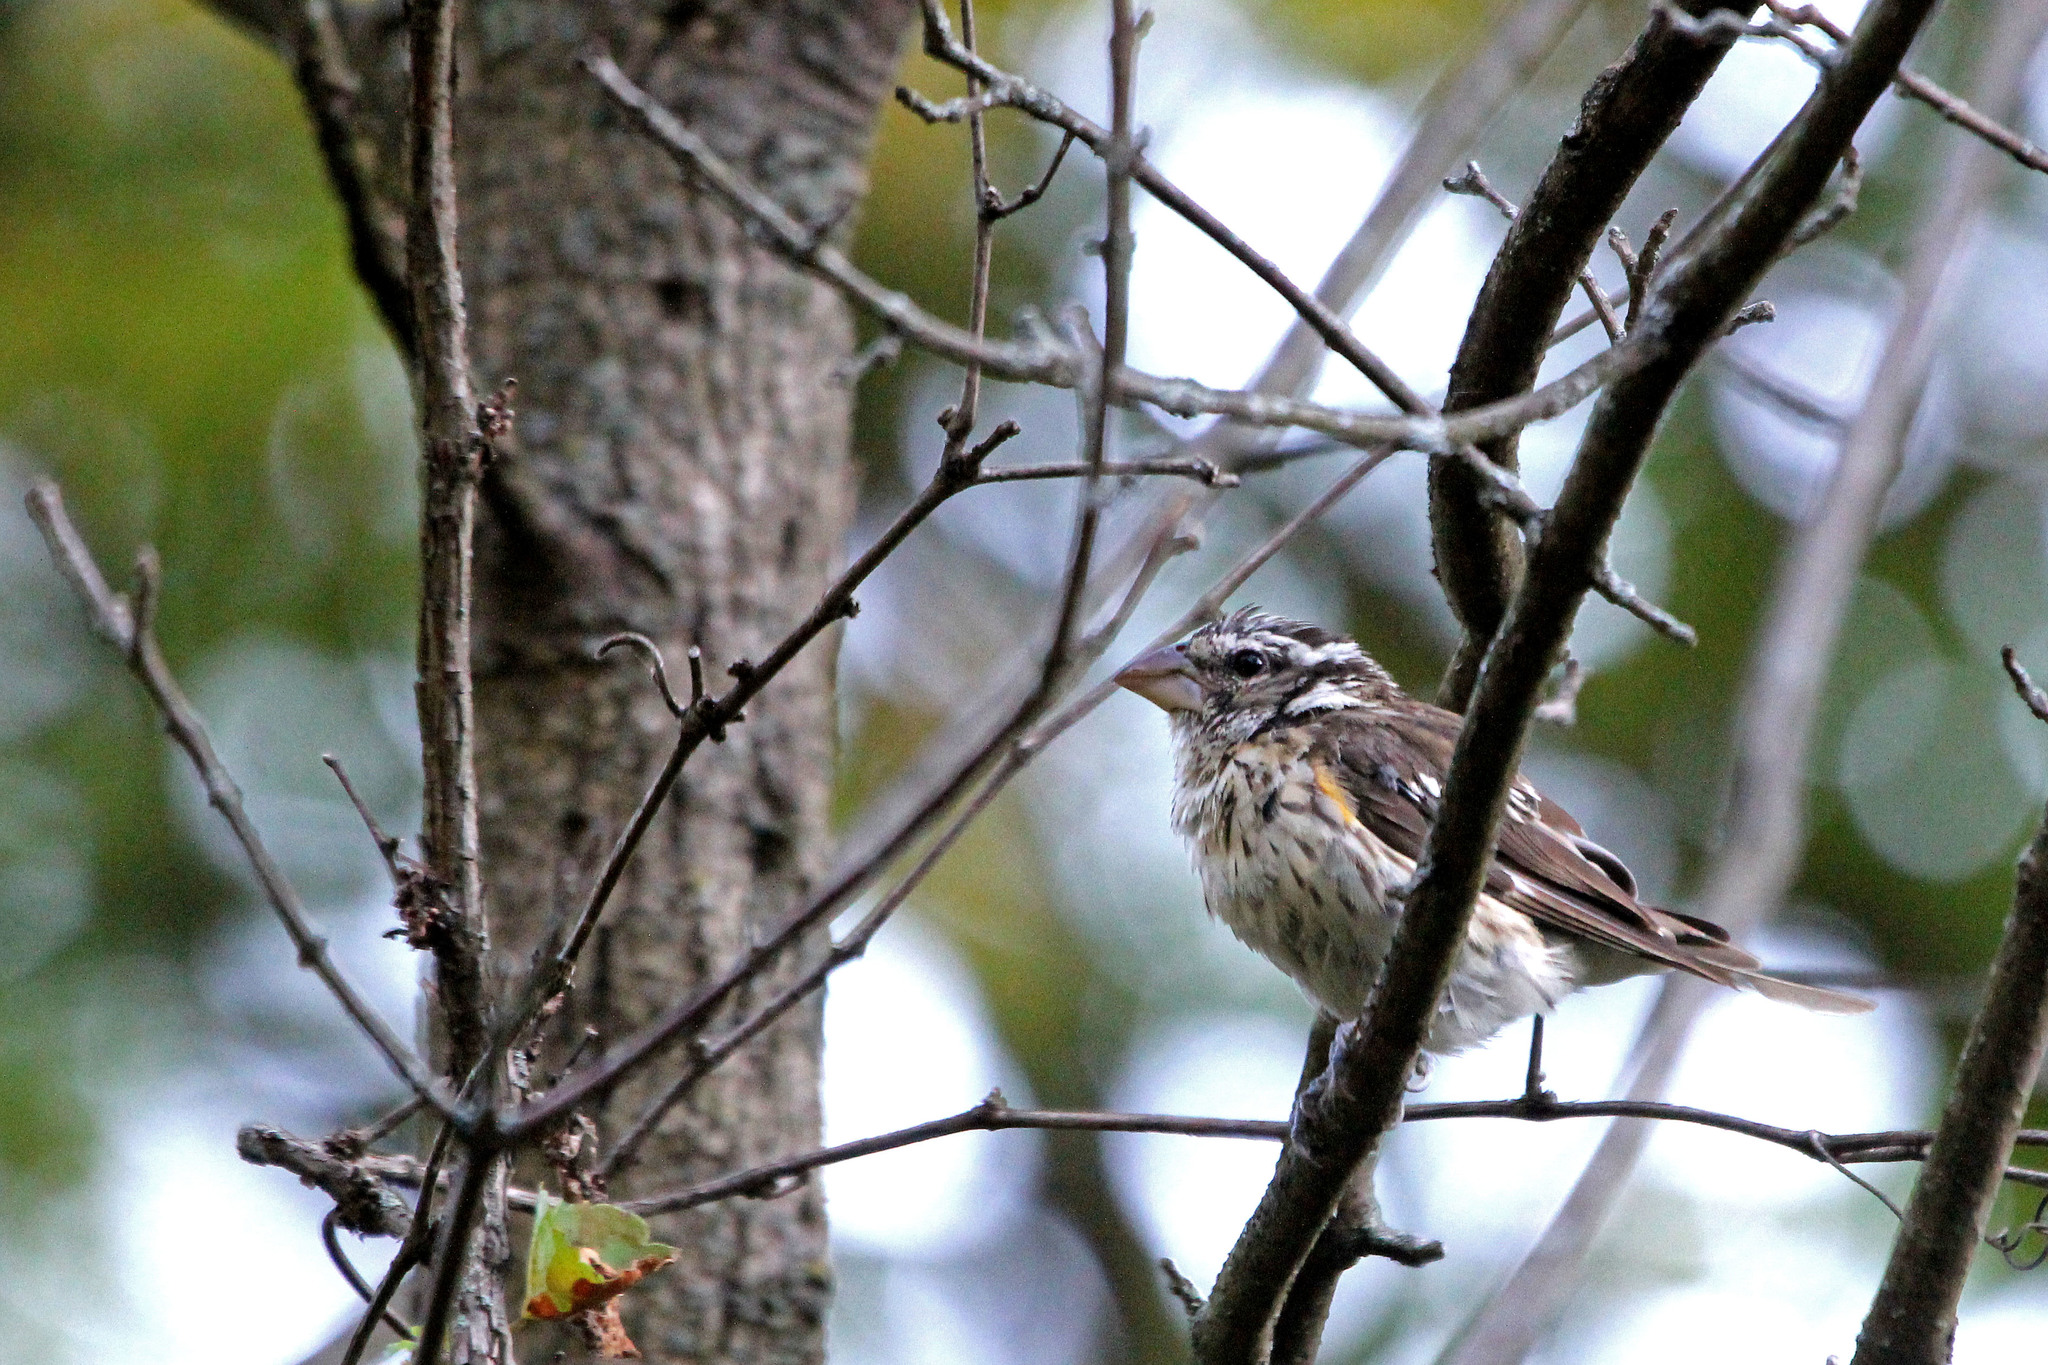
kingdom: Animalia
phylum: Chordata
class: Aves
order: Passeriformes
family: Cardinalidae
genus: Pheucticus
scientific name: Pheucticus ludovicianus
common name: Rose-breasted grosbeak
